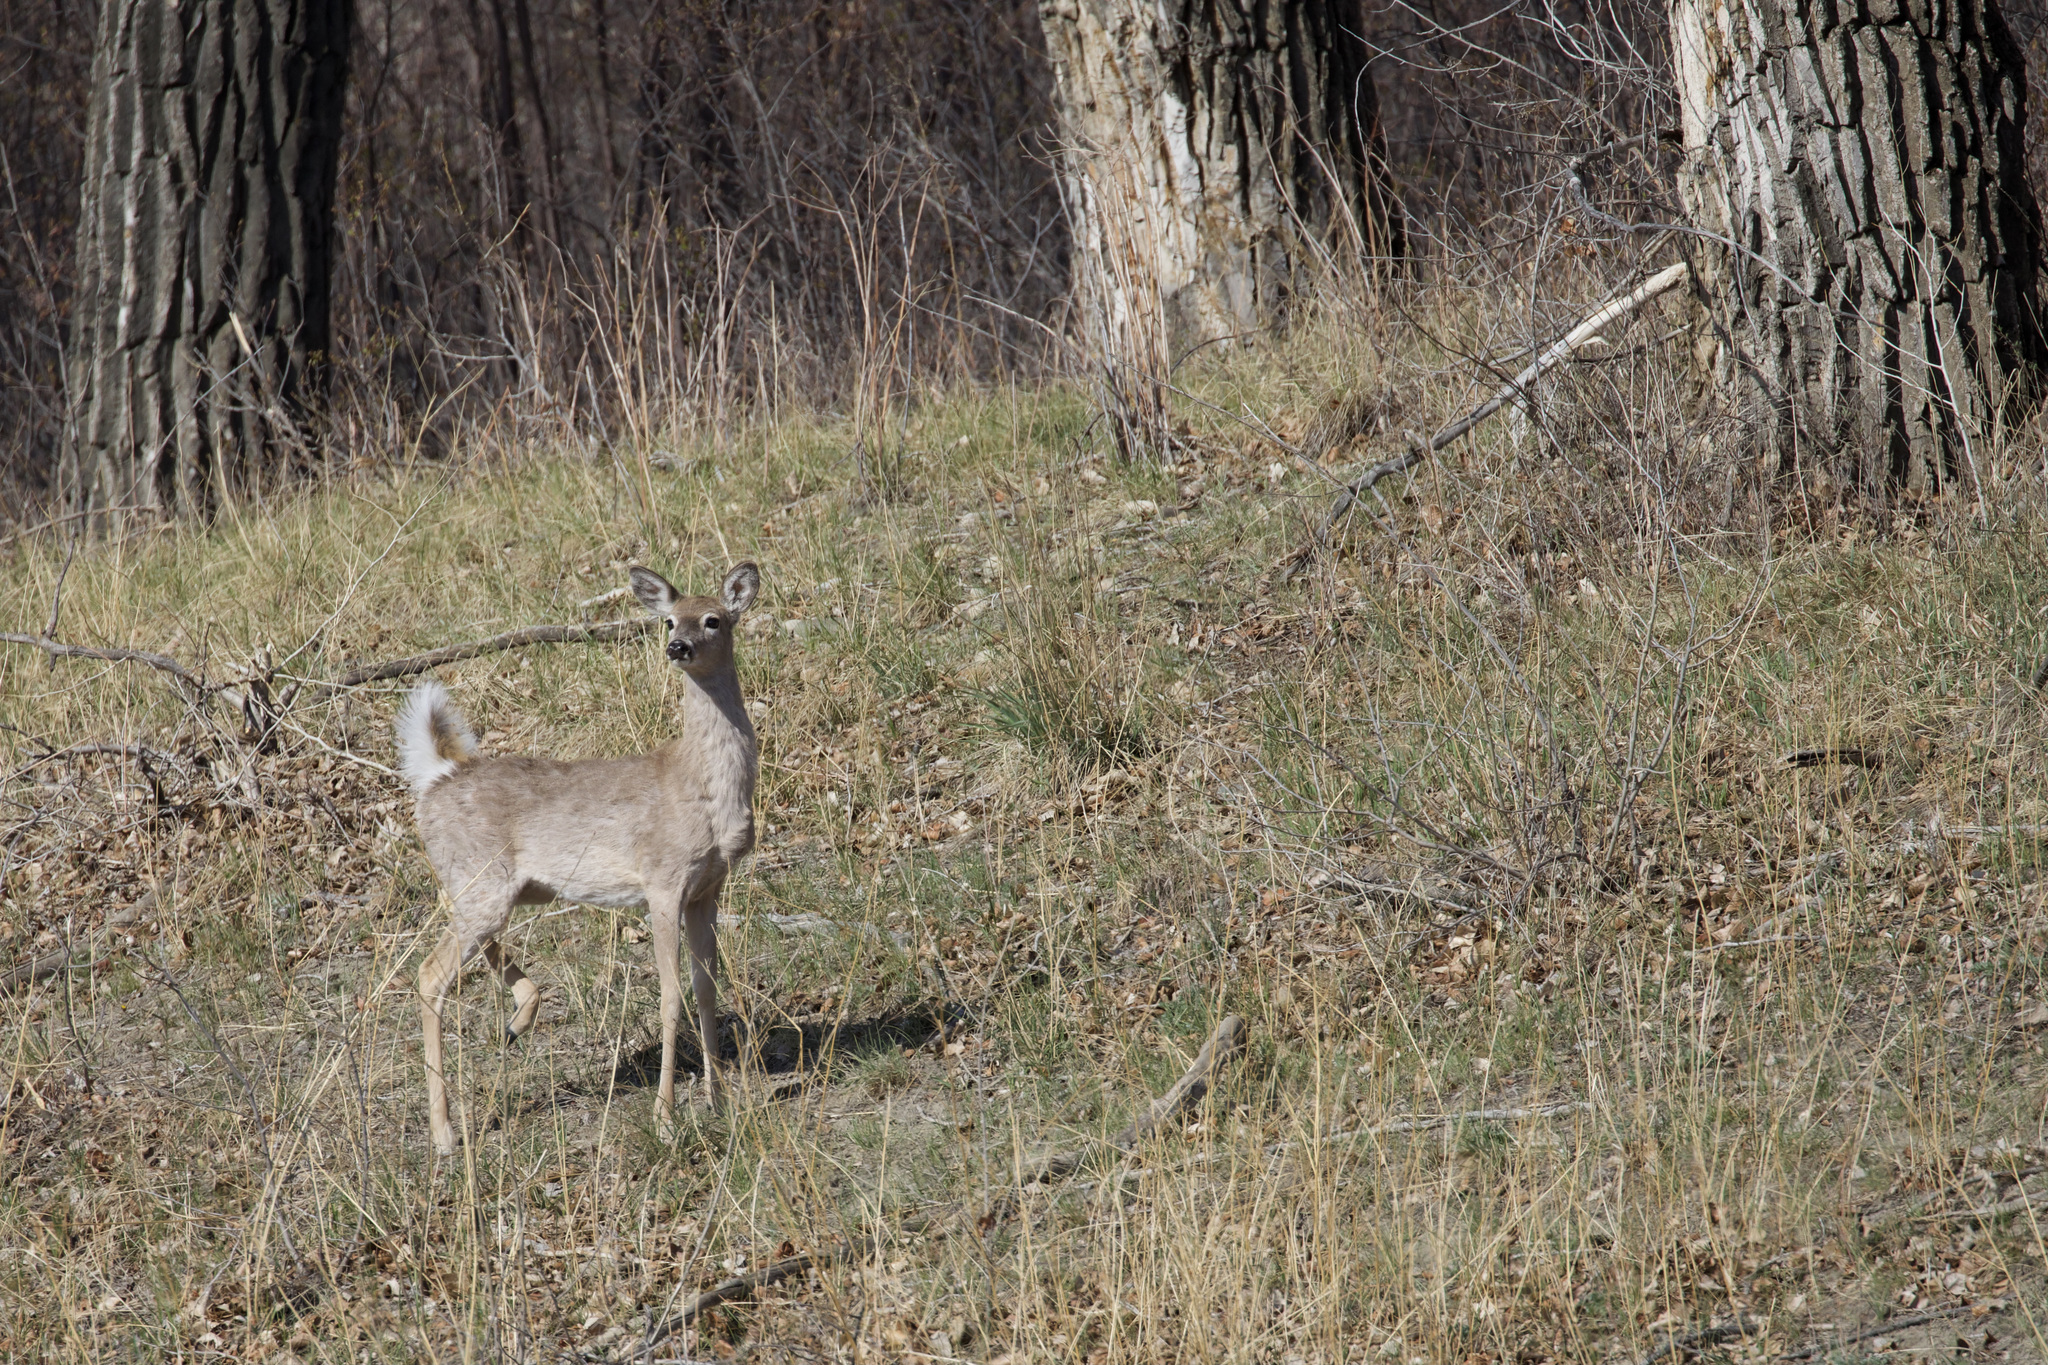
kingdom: Animalia
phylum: Chordata
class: Mammalia
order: Artiodactyla
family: Cervidae
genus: Odocoileus
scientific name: Odocoileus virginianus
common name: White-tailed deer
